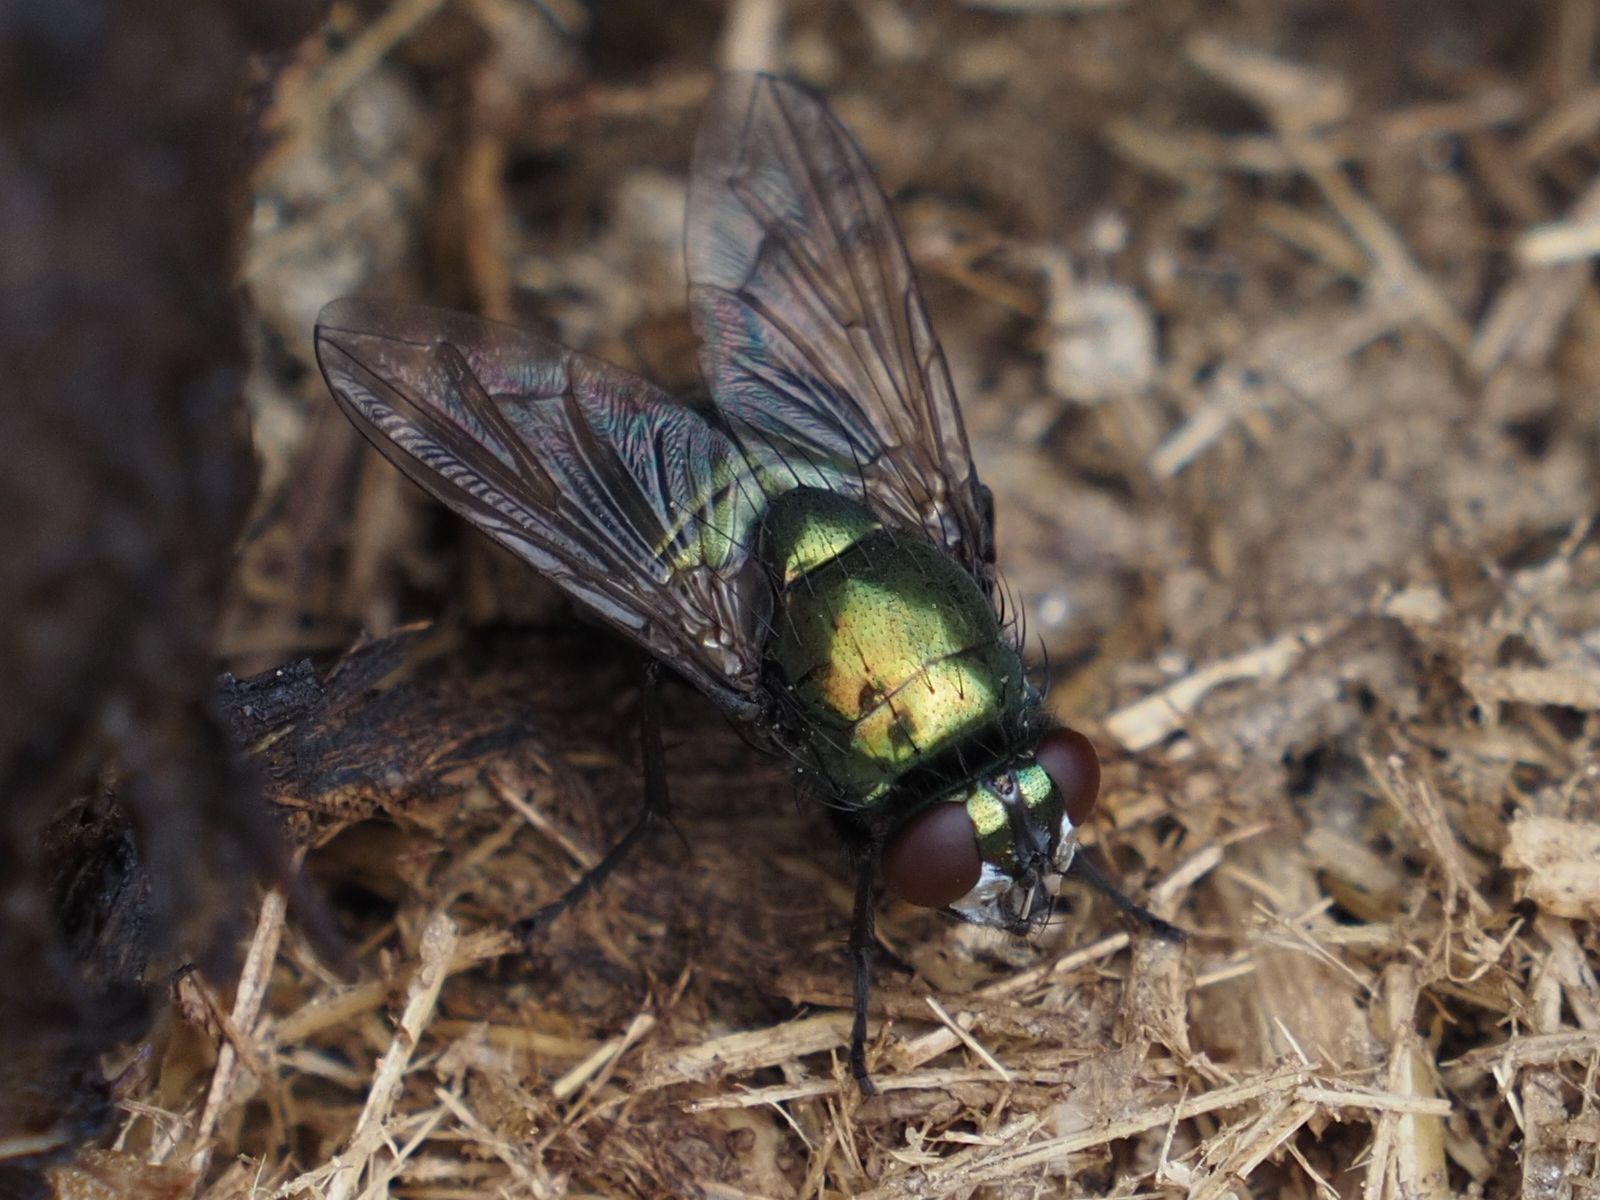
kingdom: Animalia
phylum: Arthropoda
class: Insecta
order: Diptera
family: Muscidae
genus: Neomyia
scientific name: Neomyia cornicina
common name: House fly
